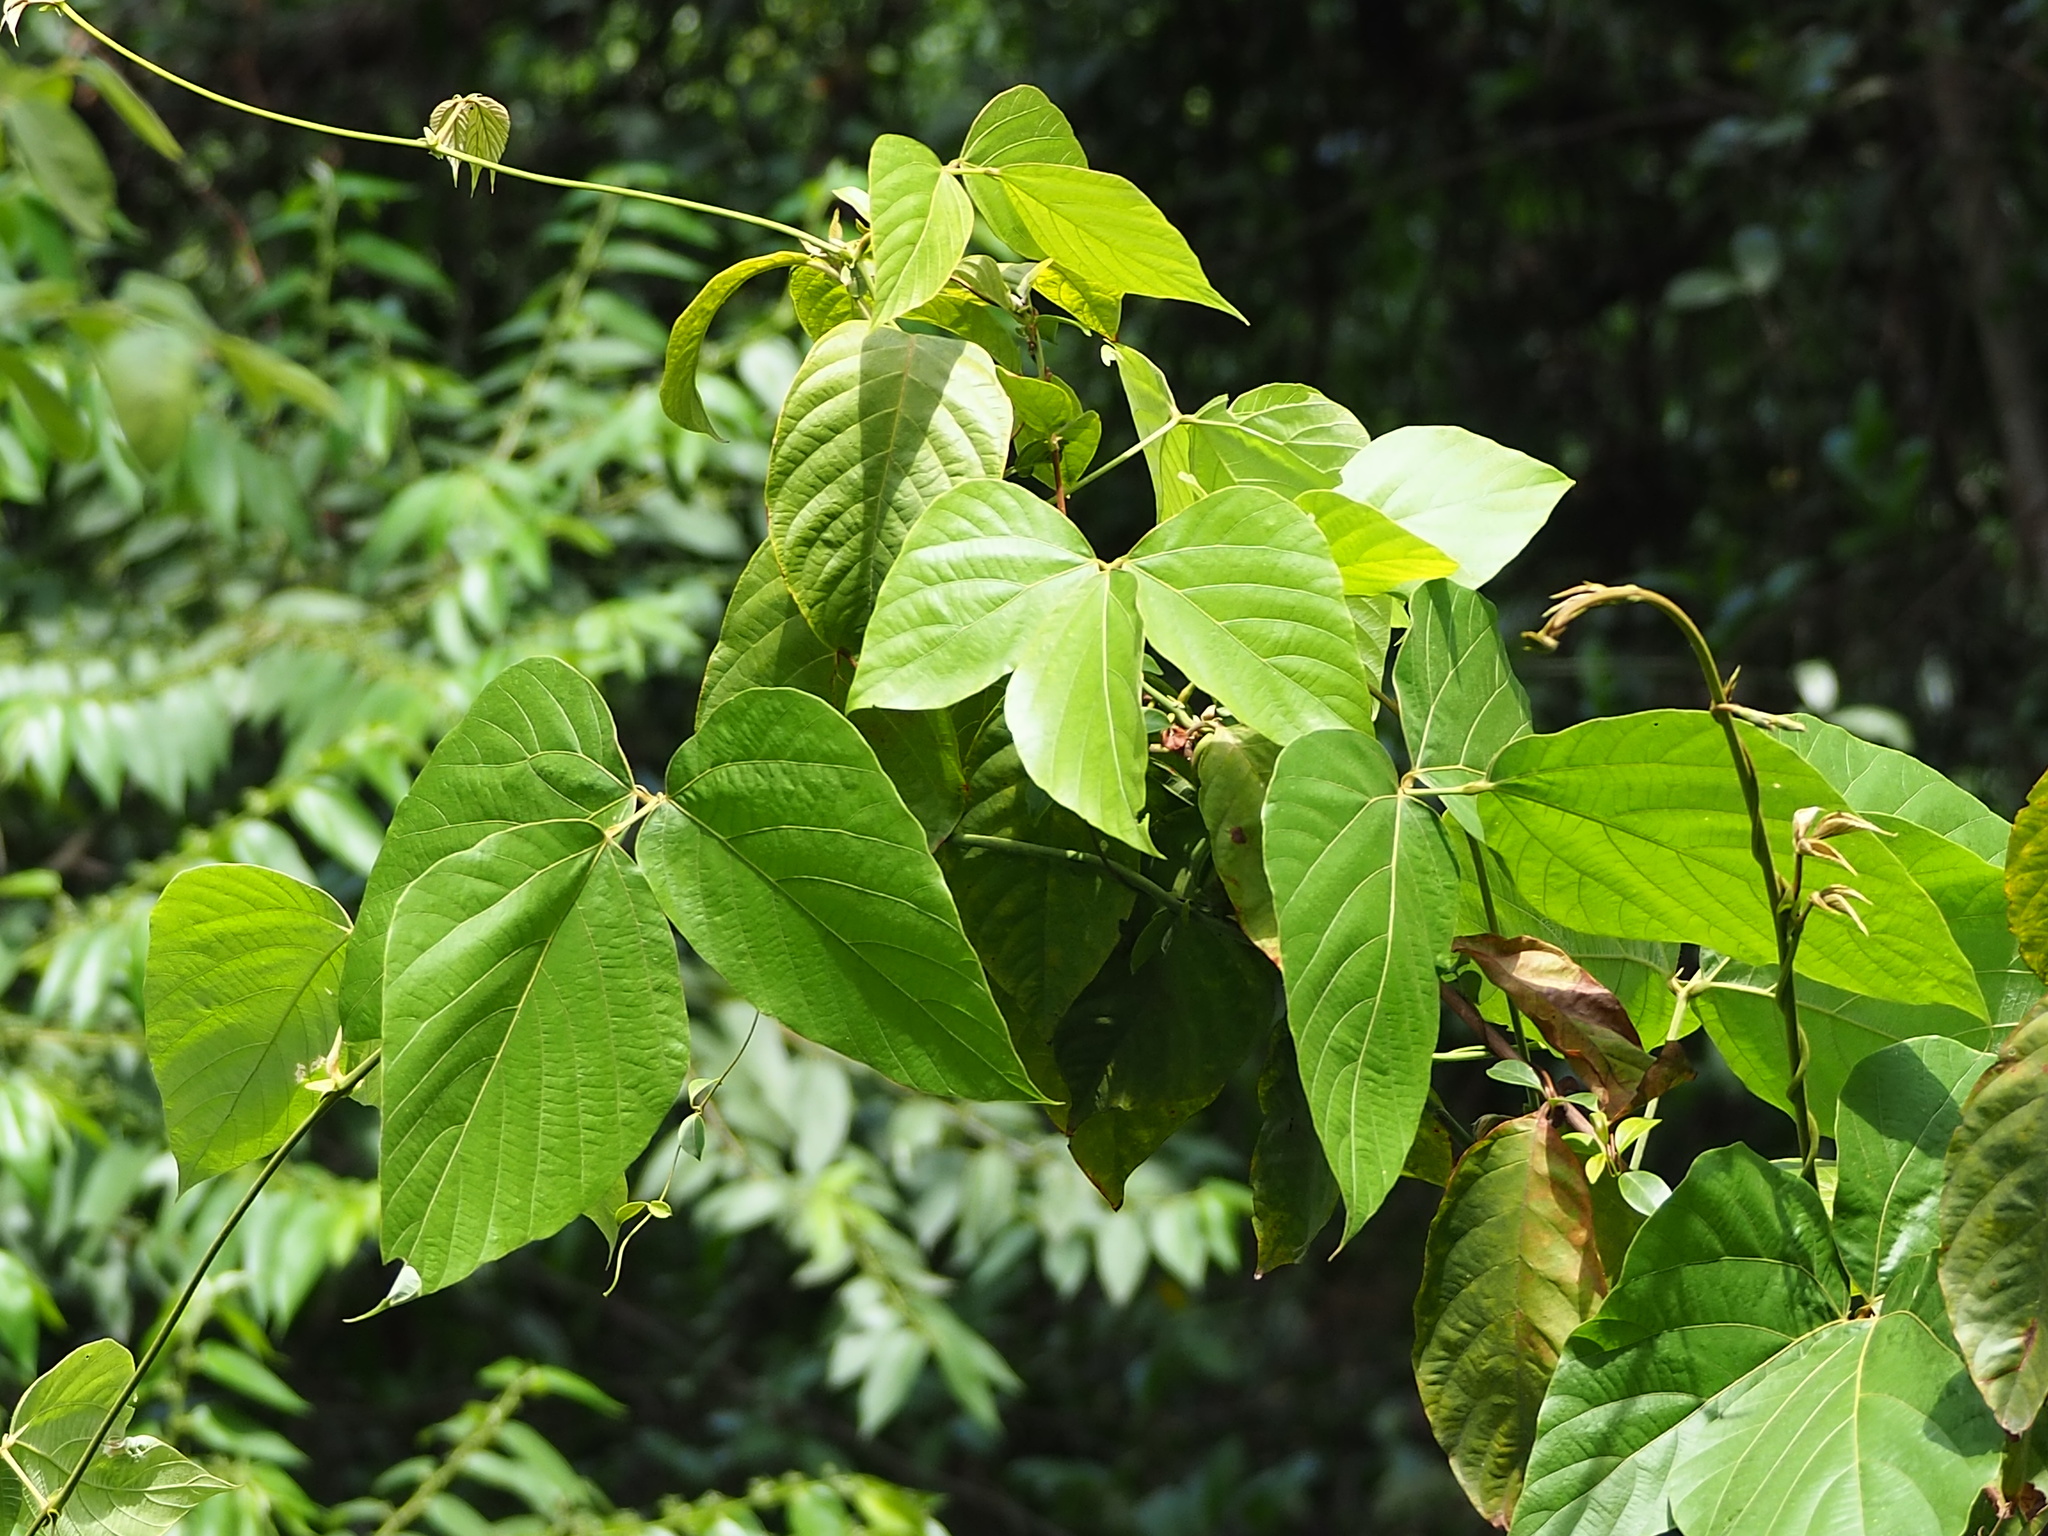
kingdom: Plantae
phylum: Tracheophyta
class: Magnoliopsida
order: Fabales
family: Fabaceae
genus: Pueraria
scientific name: Pueraria montana
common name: Kudzu
